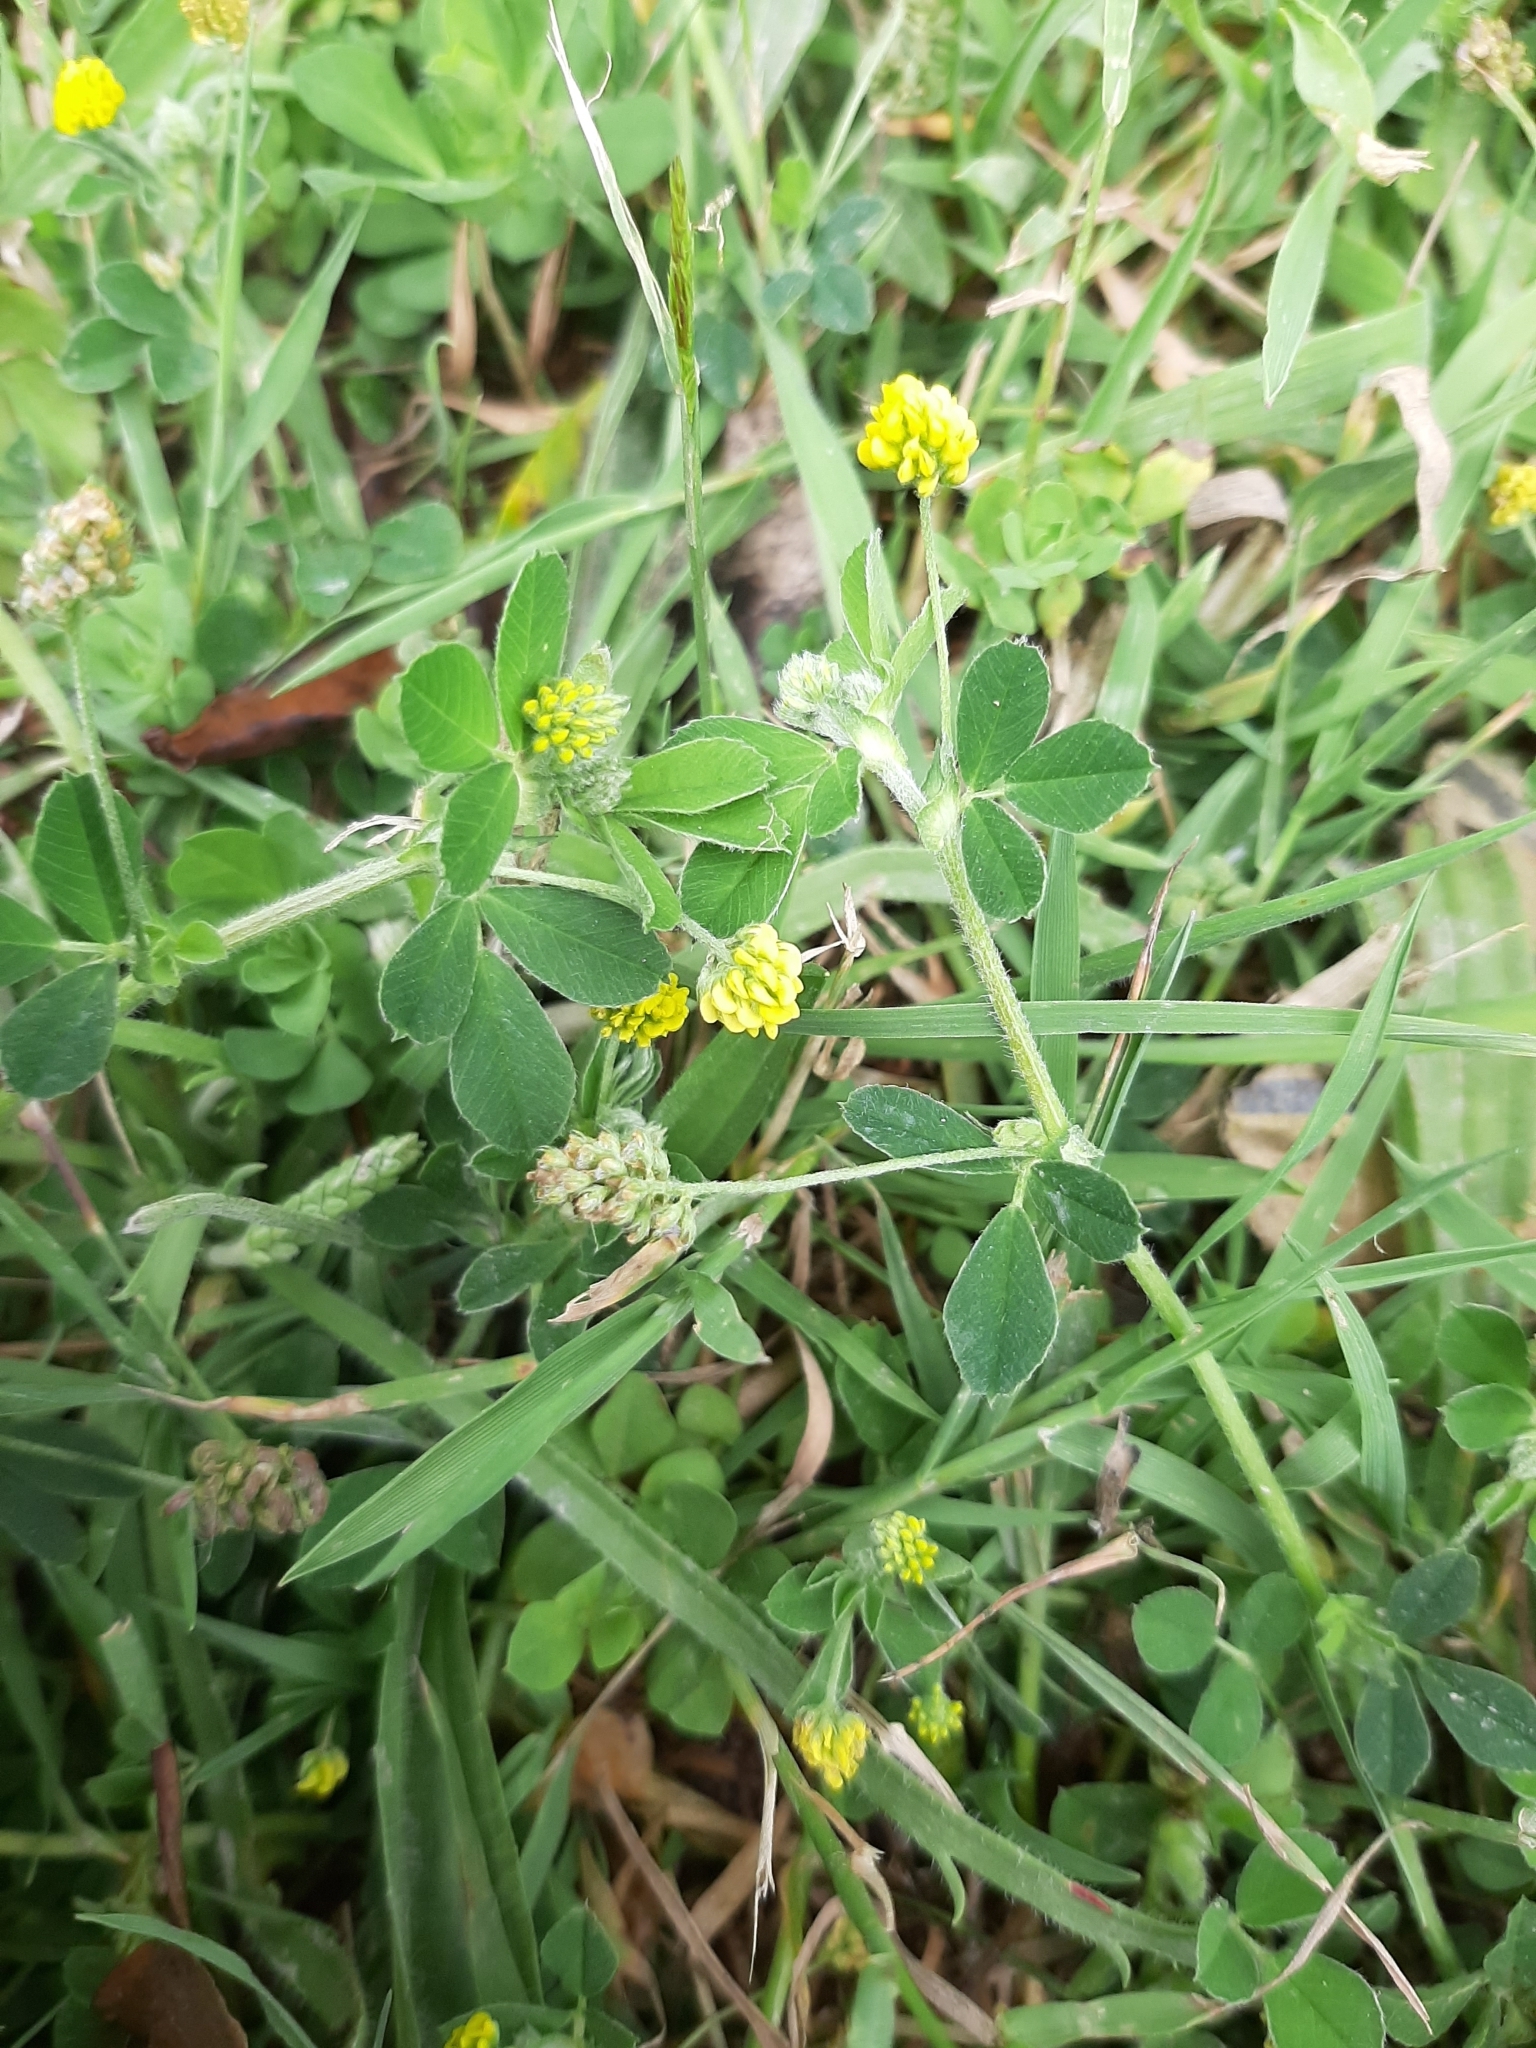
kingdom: Plantae
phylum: Tracheophyta
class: Magnoliopsida
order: Fabales
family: Fabaceae
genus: Medicago
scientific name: Medicago lupulina
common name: Black medick
